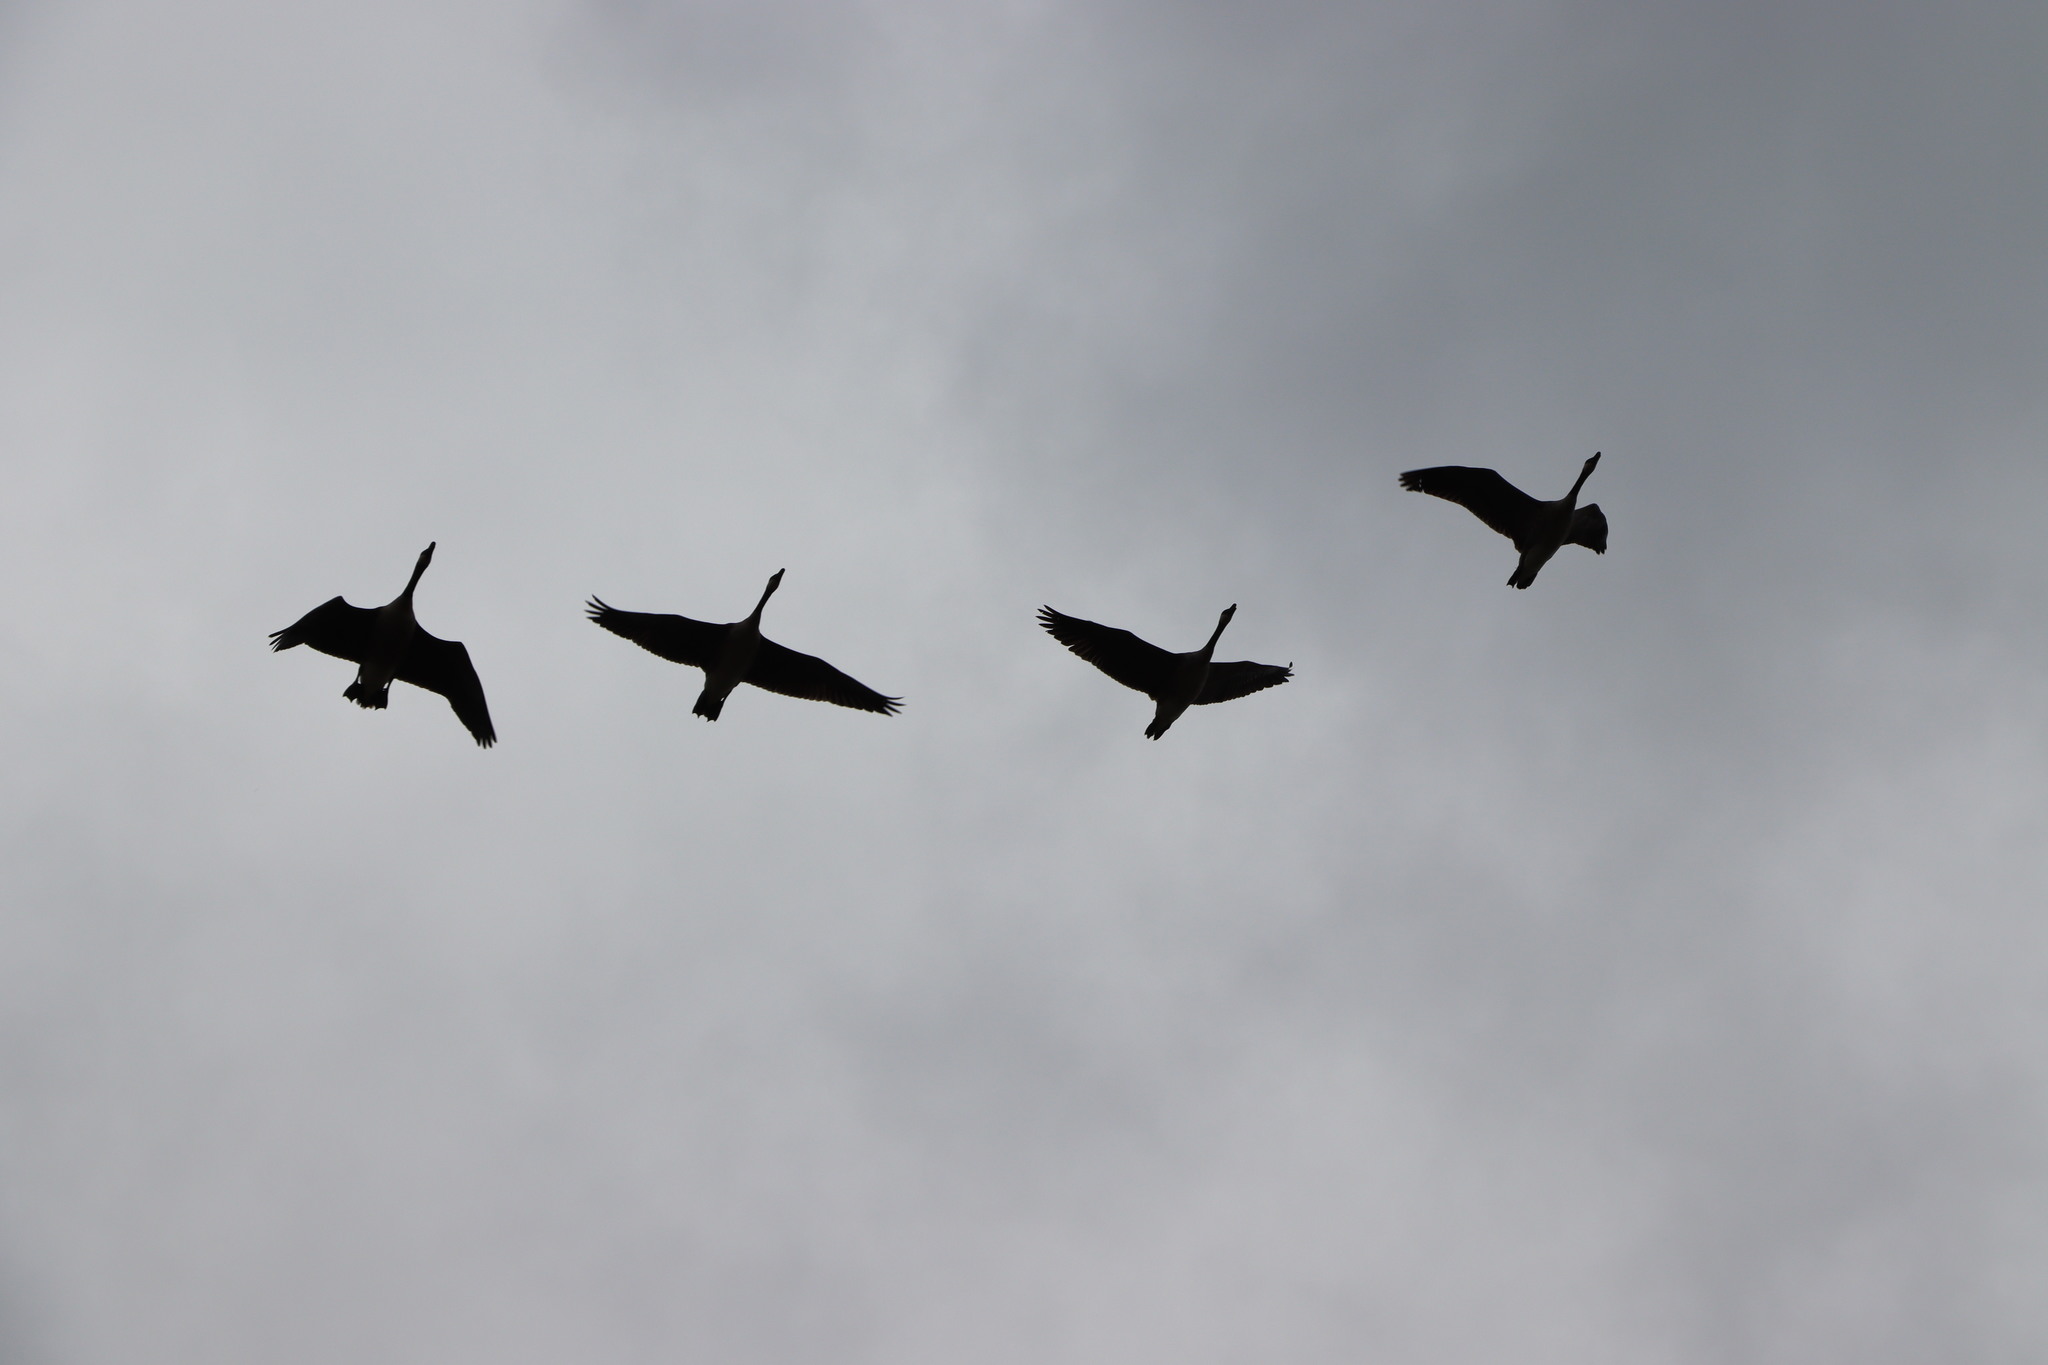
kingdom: Animalia
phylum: Chordata
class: Aves
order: Anseriformes
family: Anatidae
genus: Branta
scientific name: Branta canadensis
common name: Canada goose
